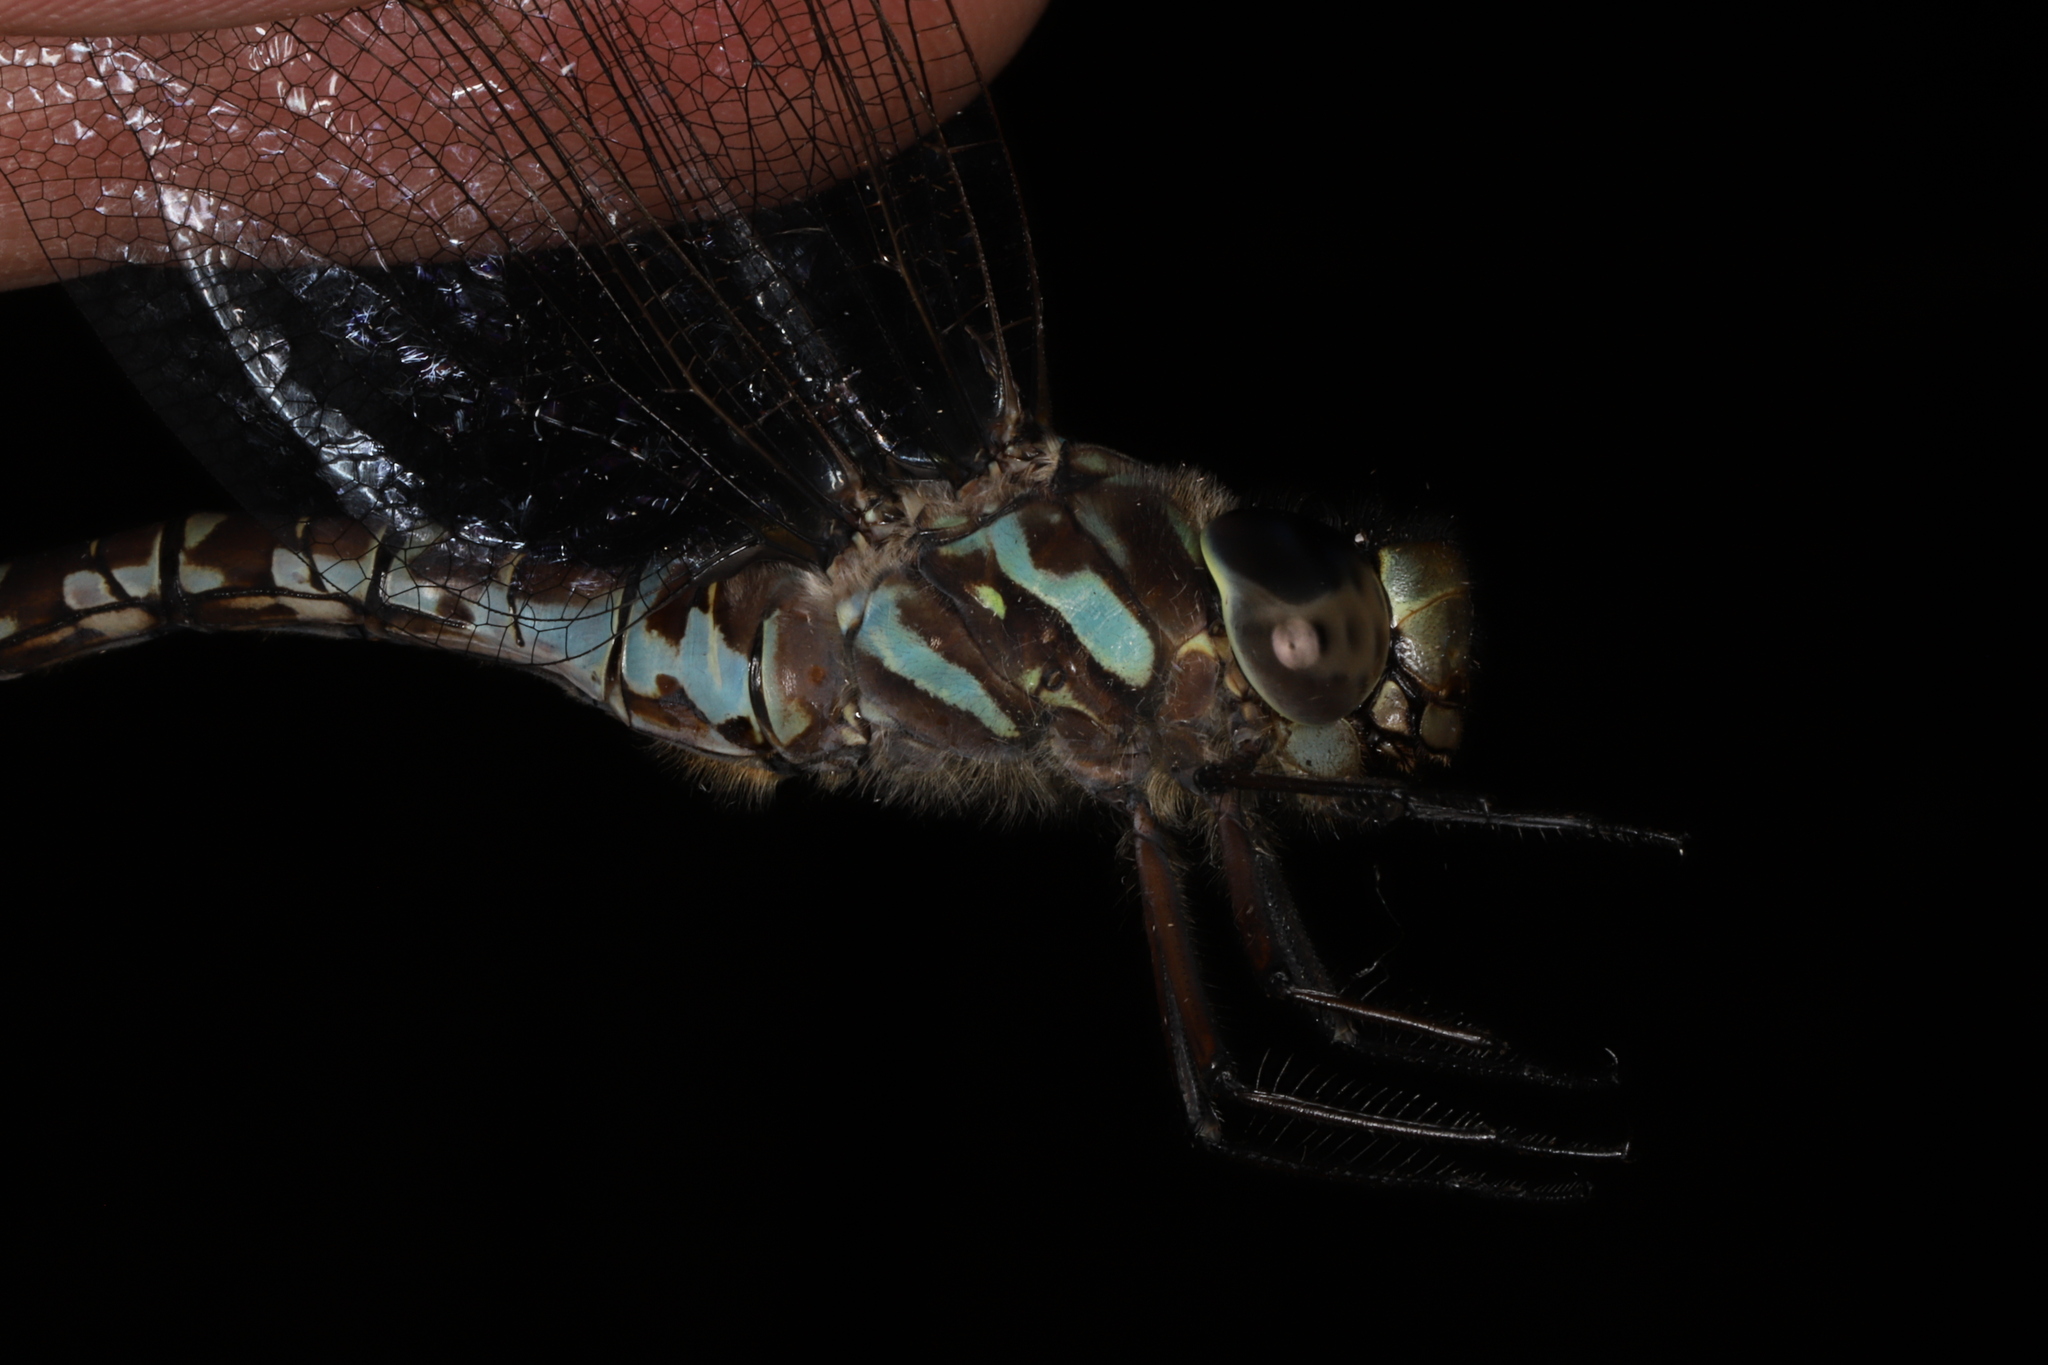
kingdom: Animalia
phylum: Arthropoda
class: Insecta
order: Odonata
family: Aeshnidae
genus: Aeshna
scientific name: Aeshna canadensis
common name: Canada darner
